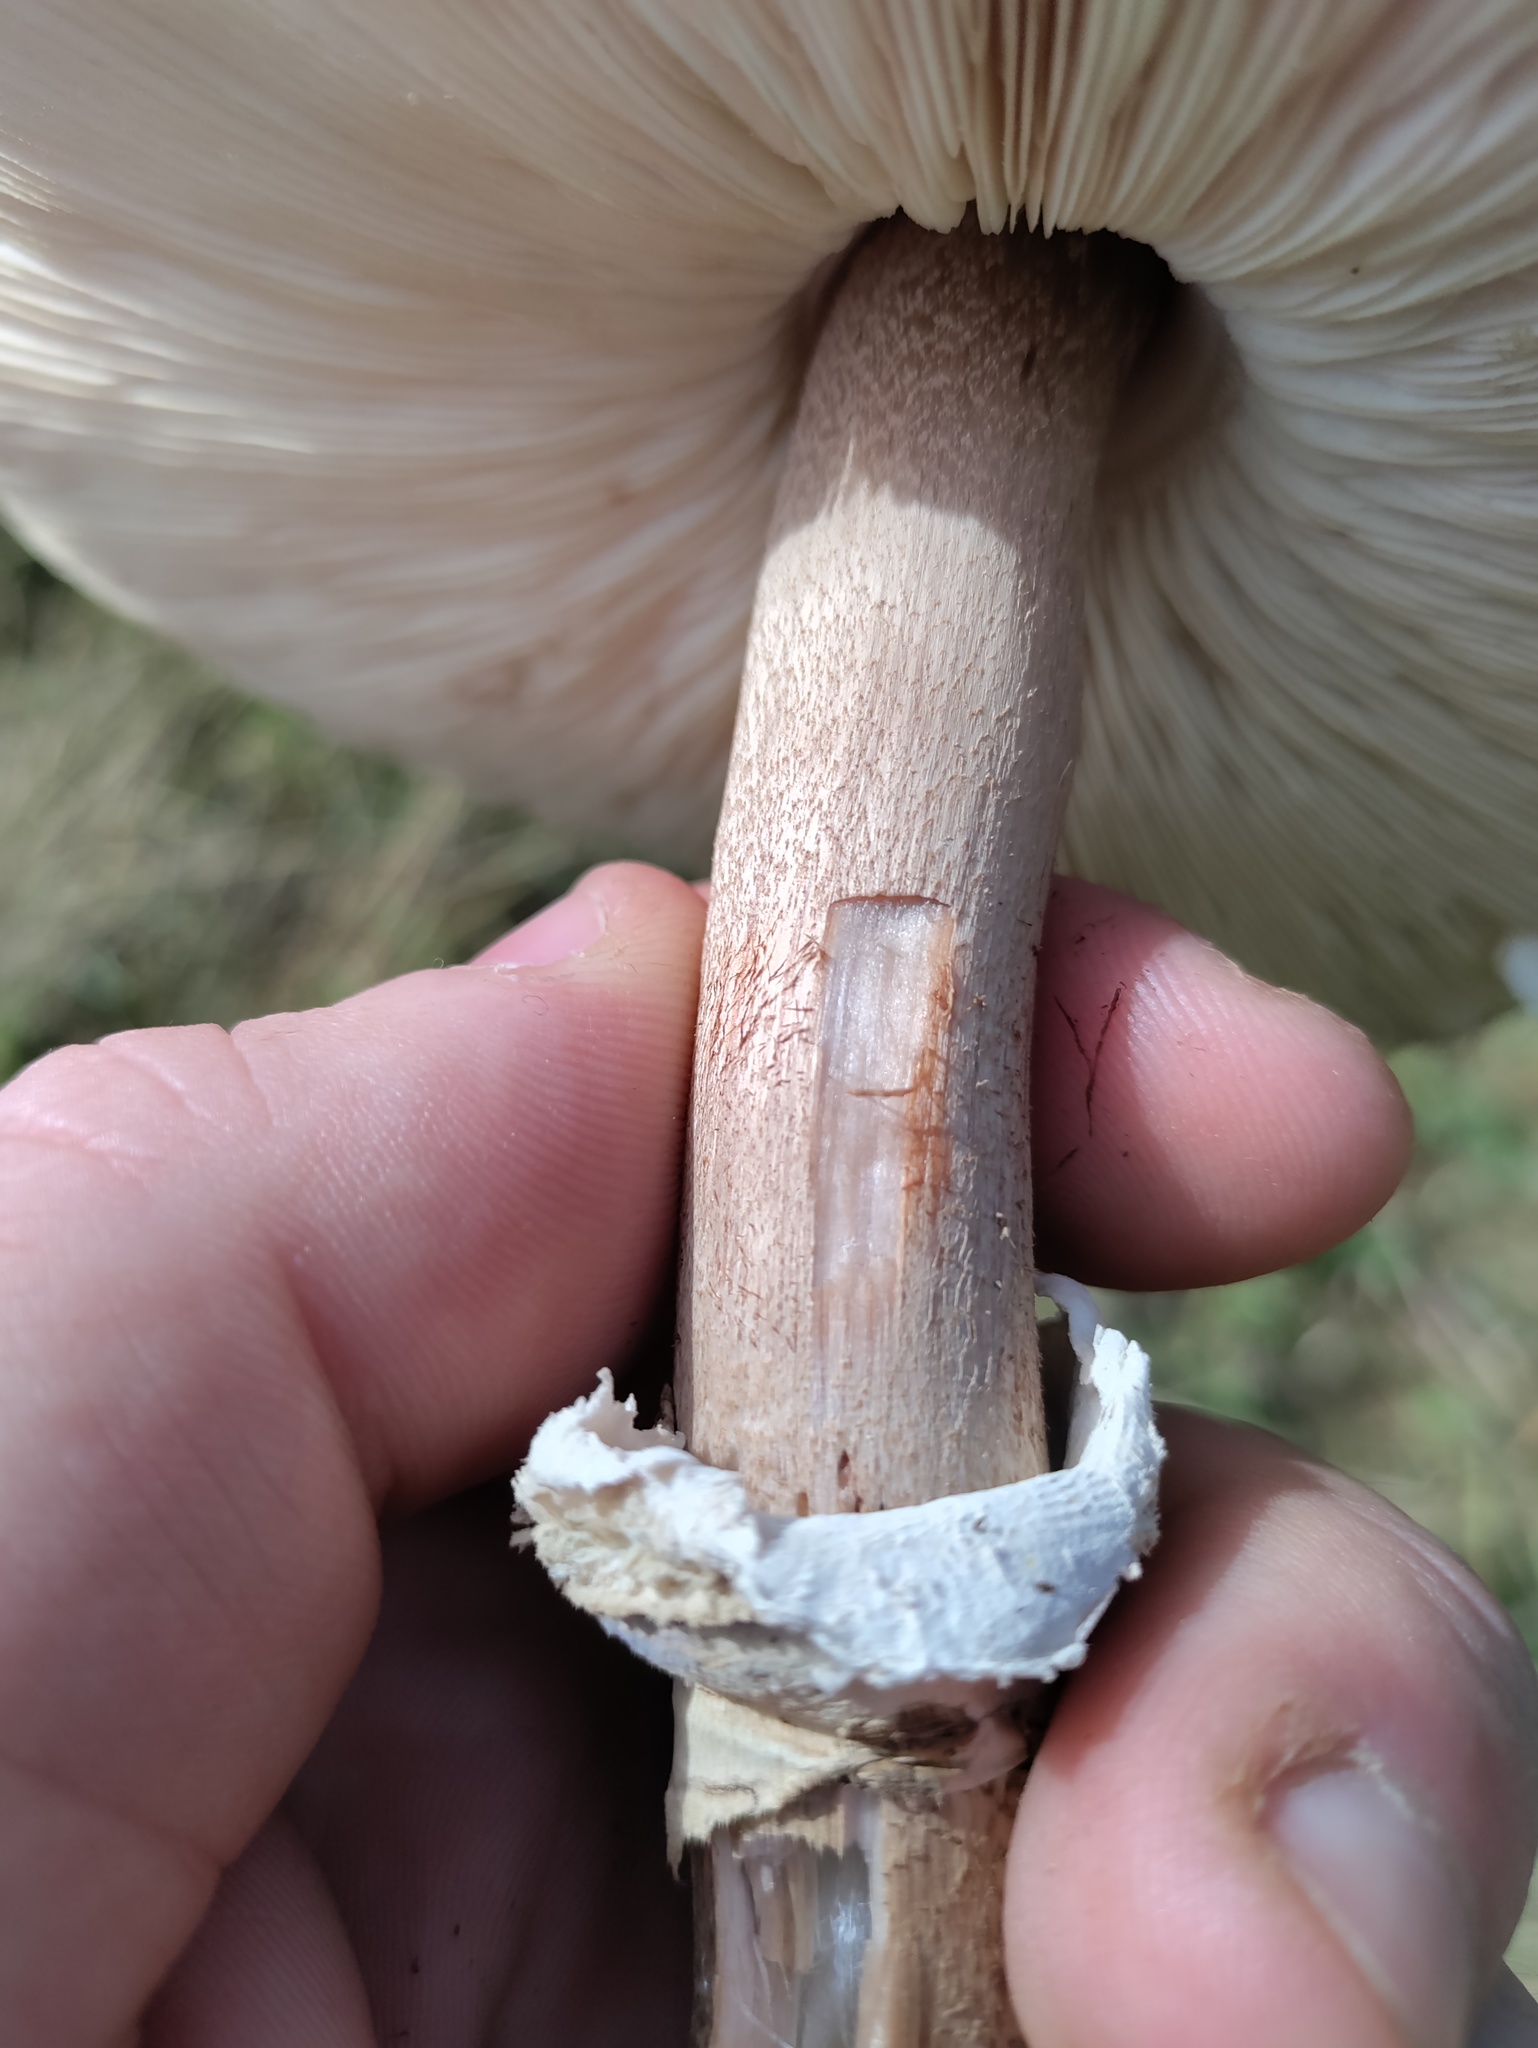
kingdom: Fungi
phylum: Basidiomycota
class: Agaricomycetes
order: Agaricales
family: Agaricaceae
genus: Macrolepiota
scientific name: Macrolepiota procera
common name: Parasol
